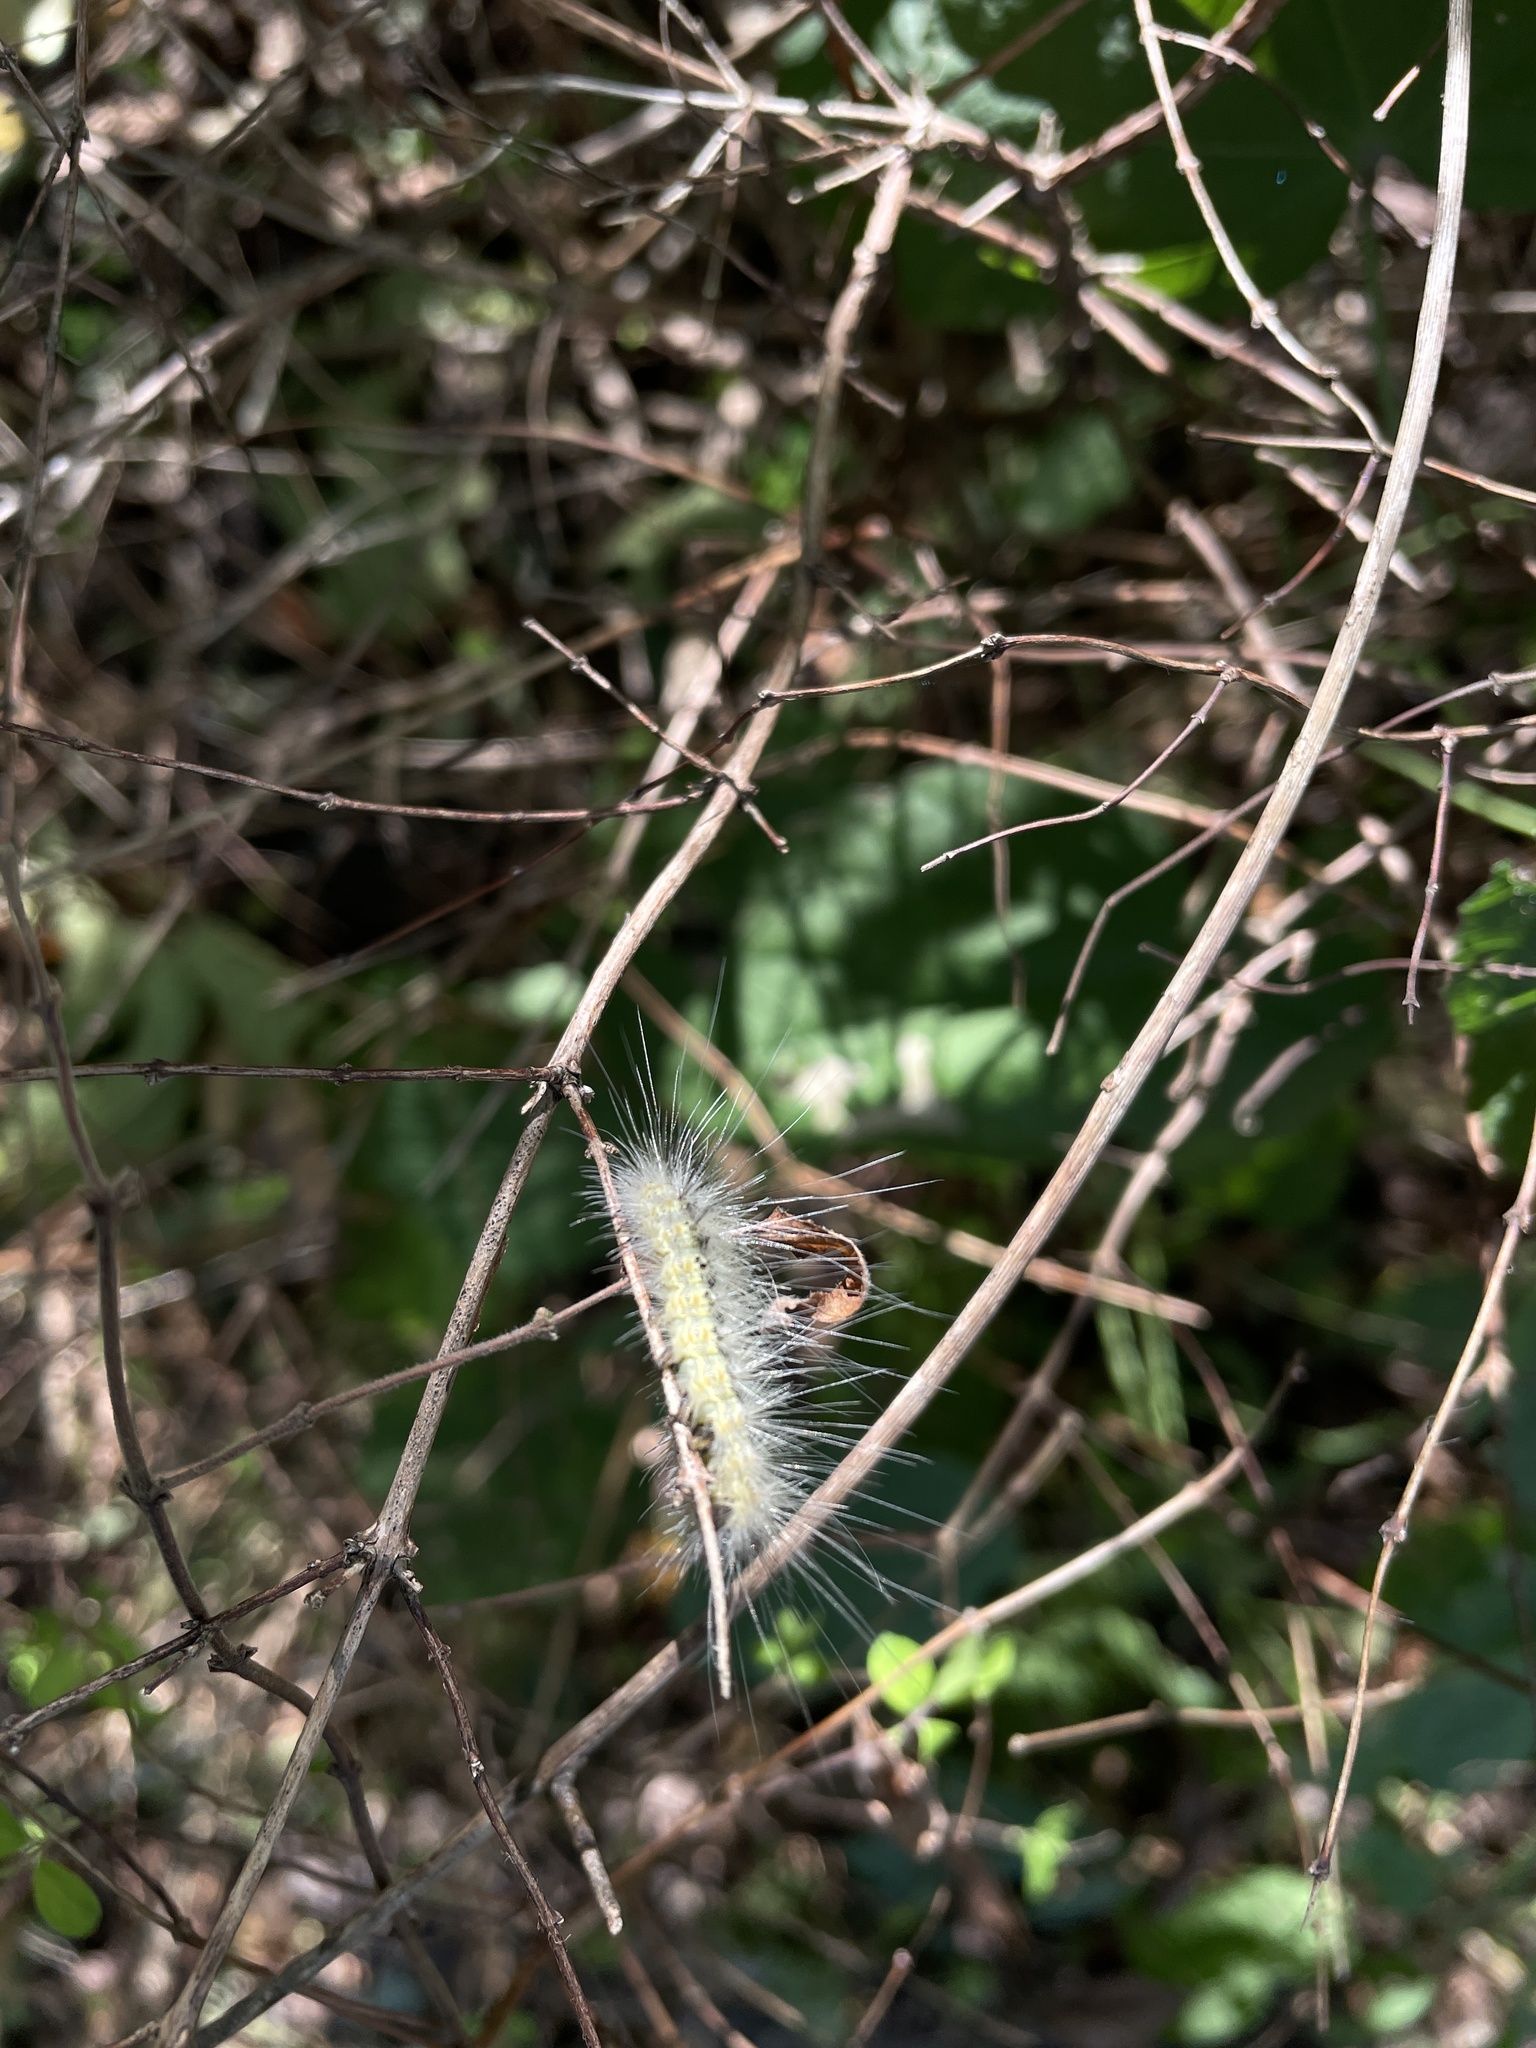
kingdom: Animalia
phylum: Arthropoda
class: Insecta
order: Lepidoptera
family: Erebidae
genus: Hyphantria
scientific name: Hyphantria cunea
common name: American white moth
